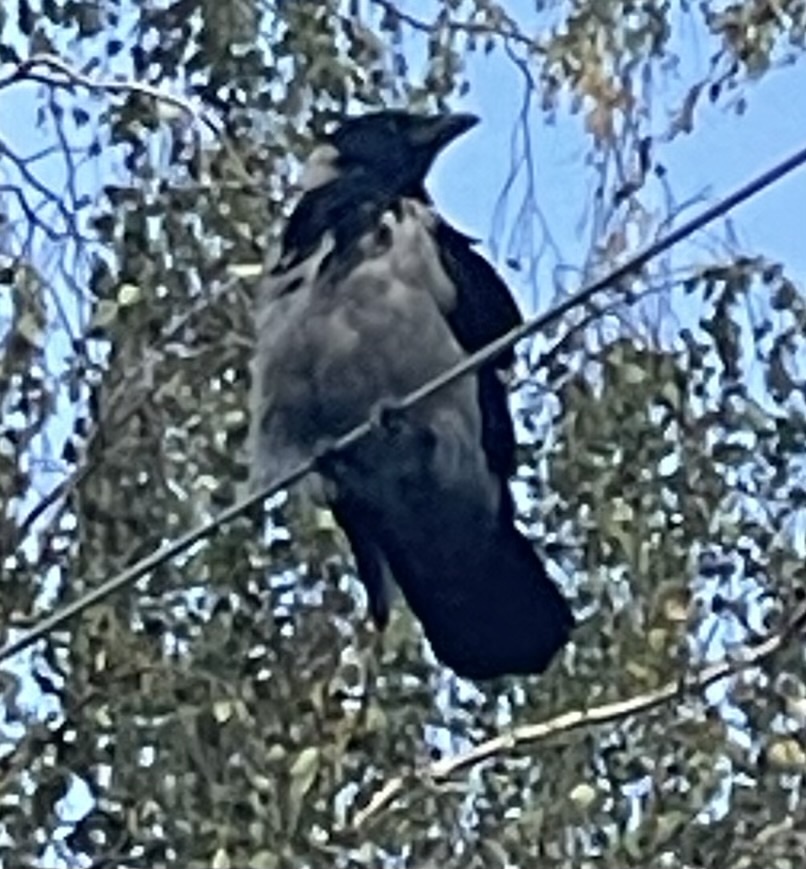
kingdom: Animalia
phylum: Chordata
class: Aves
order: Passeriformes
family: Corvidae
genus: Corvus
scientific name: Corvus cornix
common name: Hooded crow
